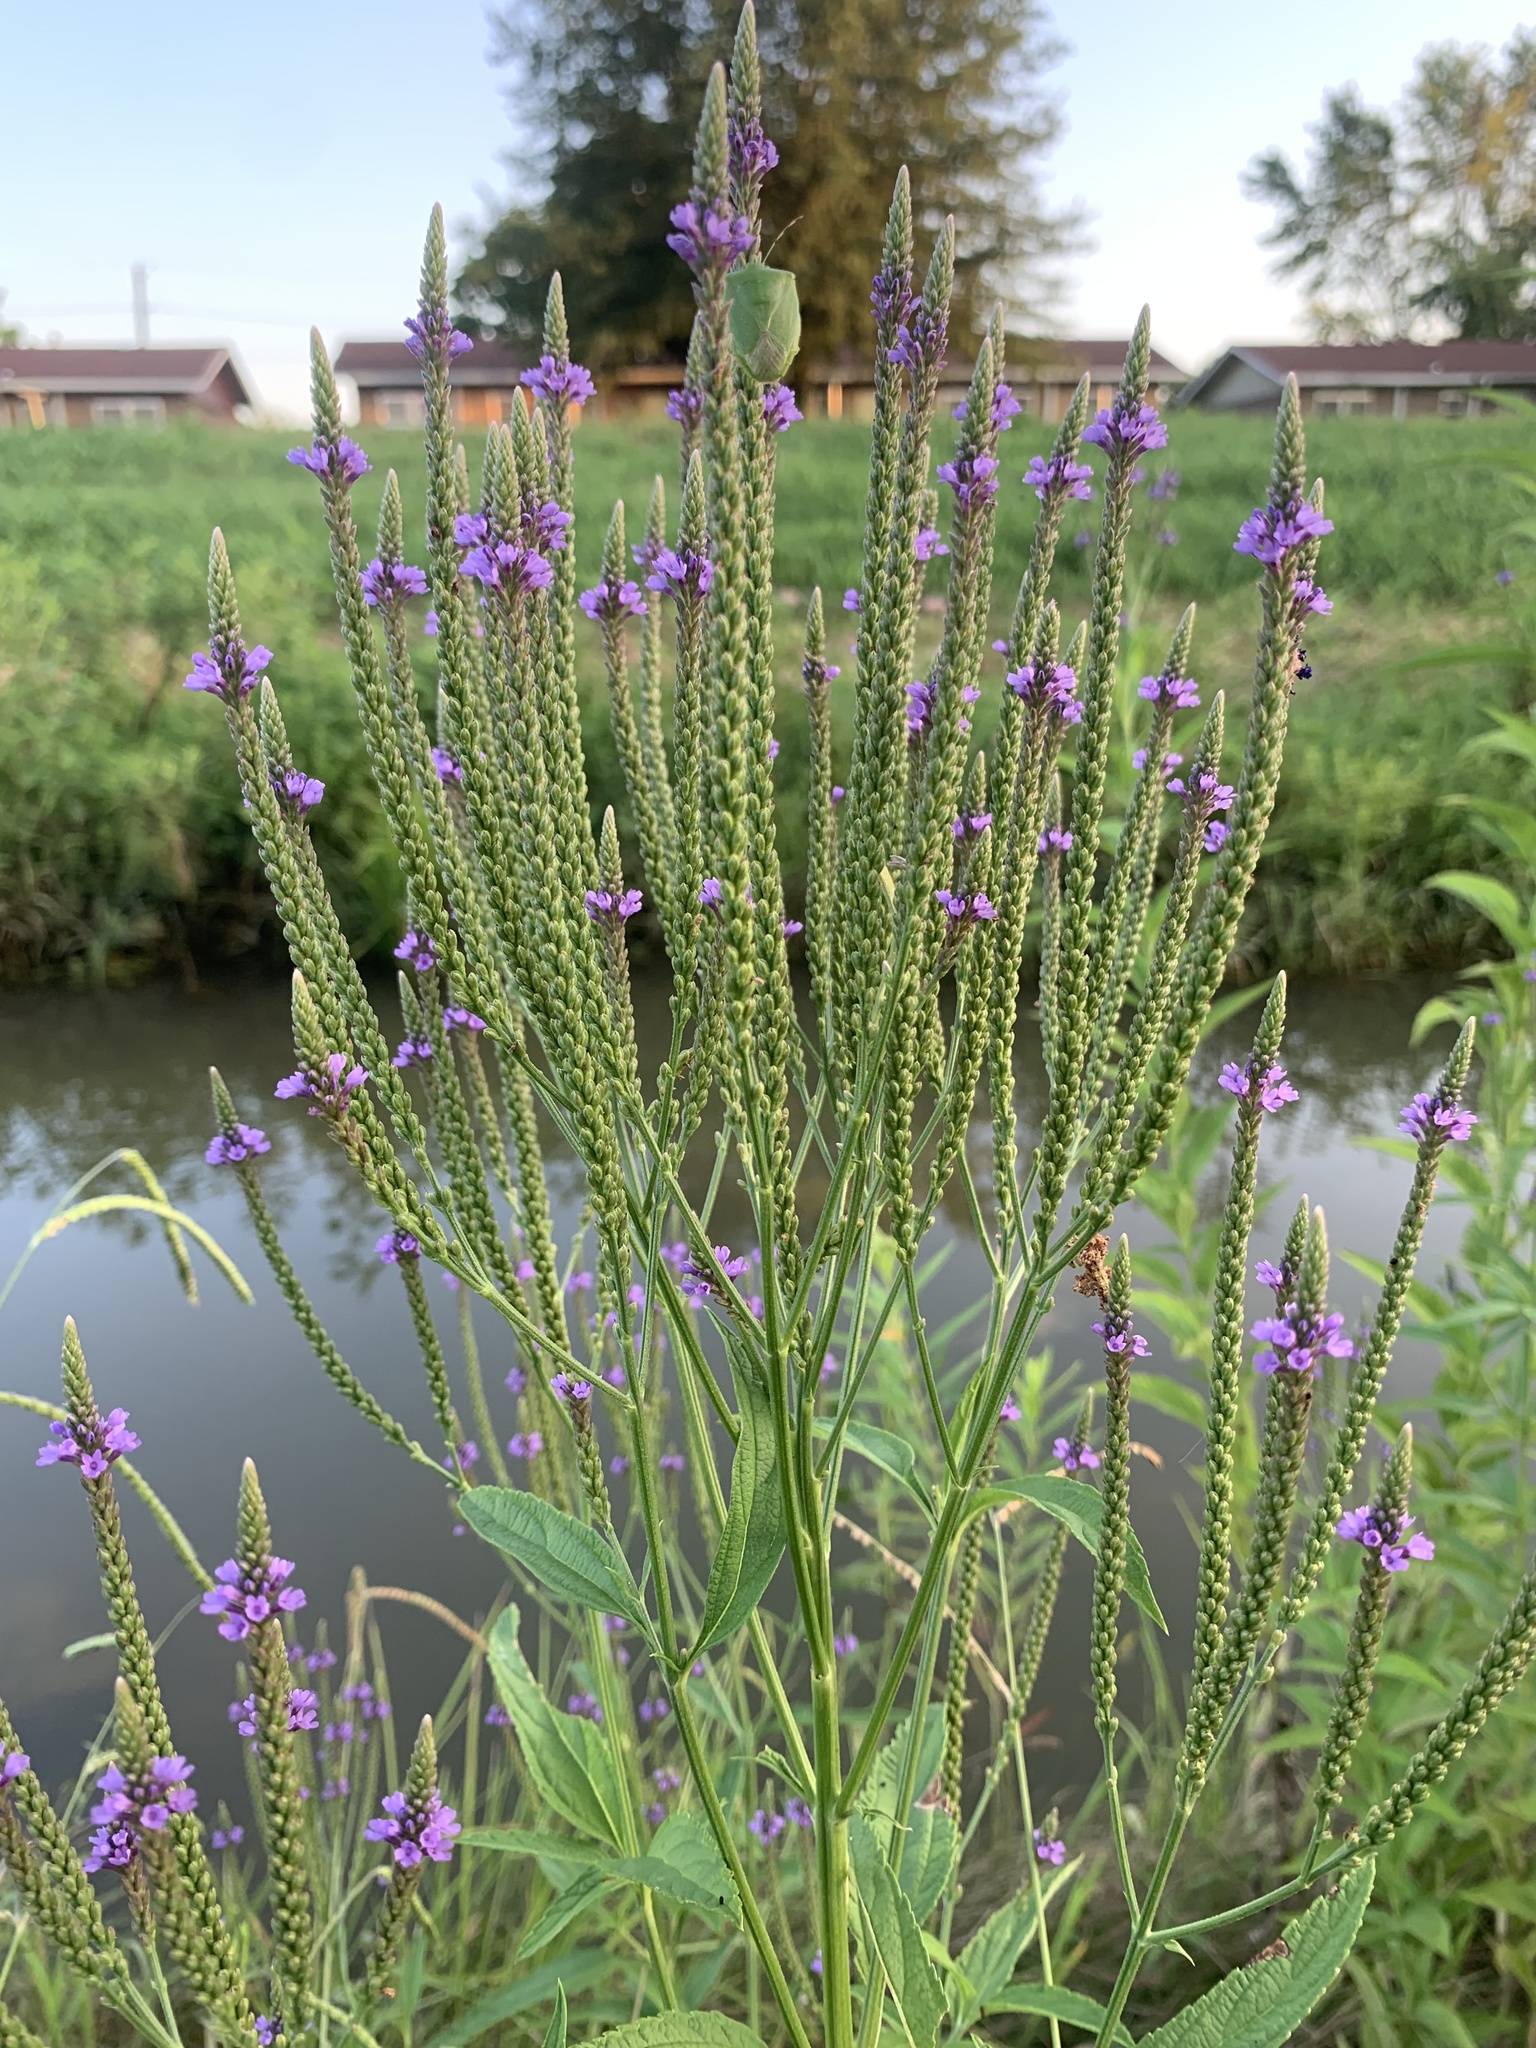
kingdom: Plantae
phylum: Tracheophyta
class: Magnoliopsida
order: Lamiales
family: Verbenaceae
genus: Verbena
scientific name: Verbena hastata
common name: American blue vervain
